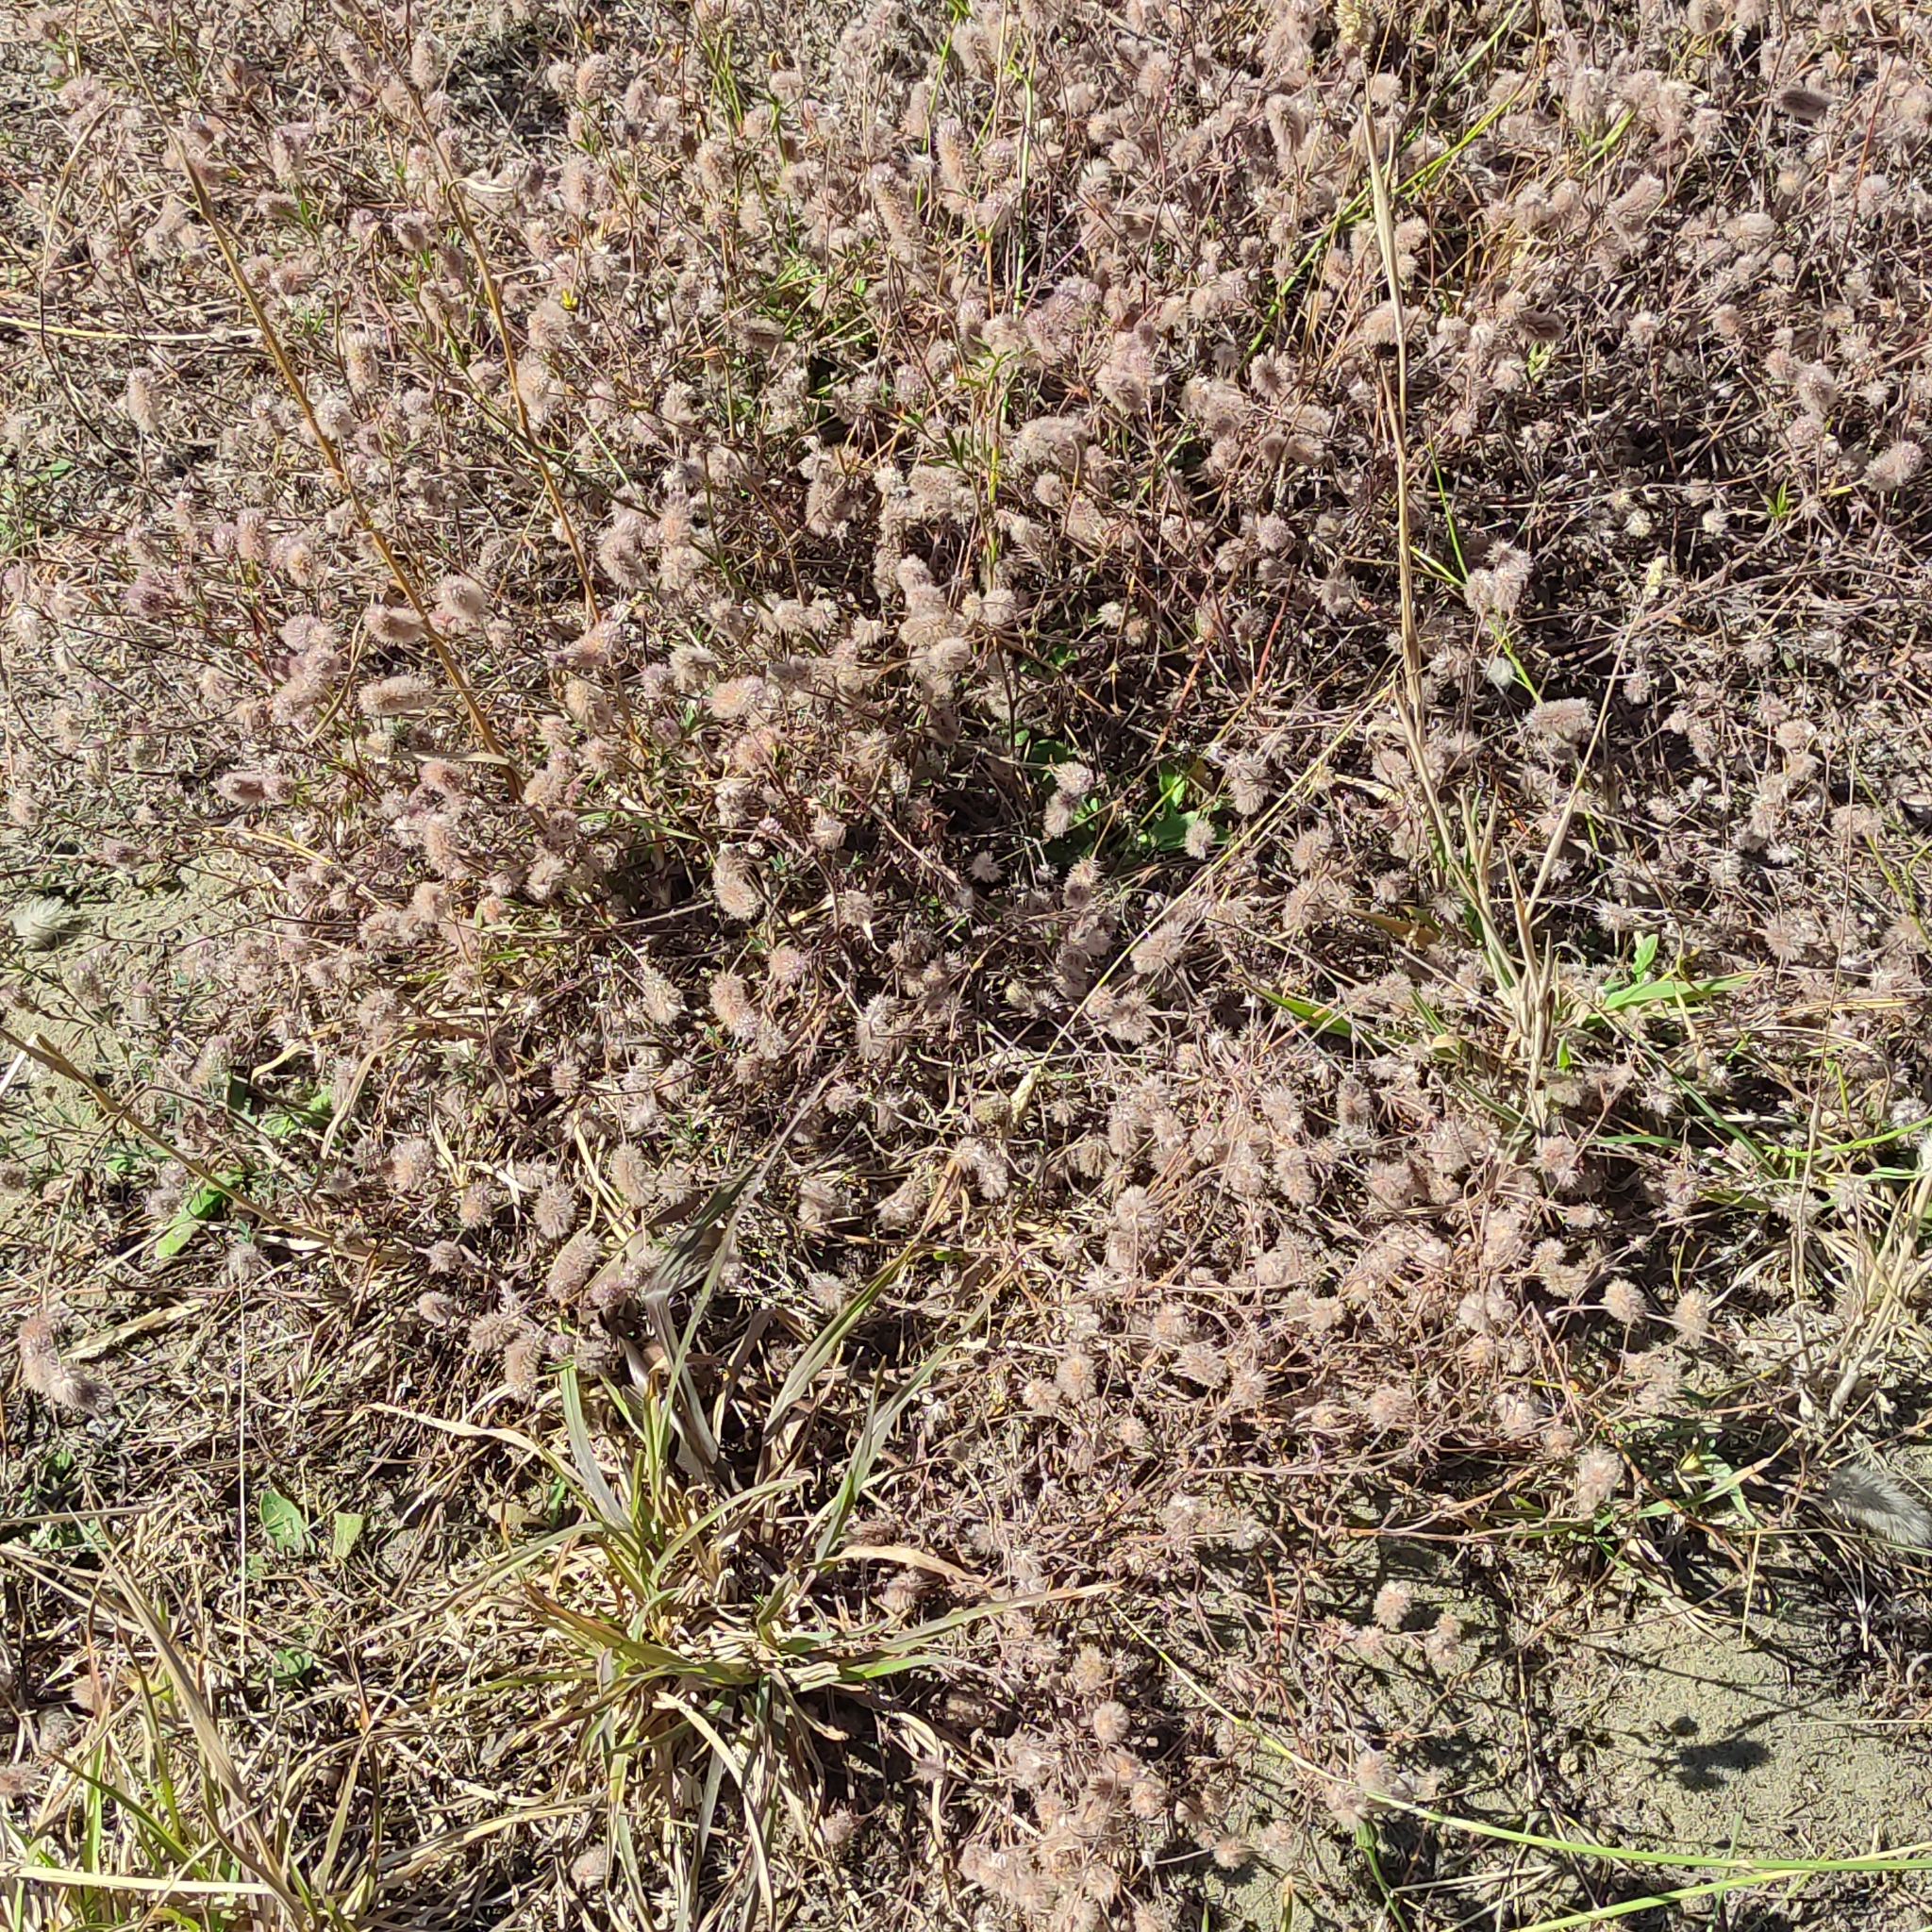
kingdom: Plantae
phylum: Tracheophyta
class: Magnoliopsida
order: Fabales
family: Fabaceae
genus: Trifolium
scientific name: Trifolium arvense
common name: Hare's-foot clover
